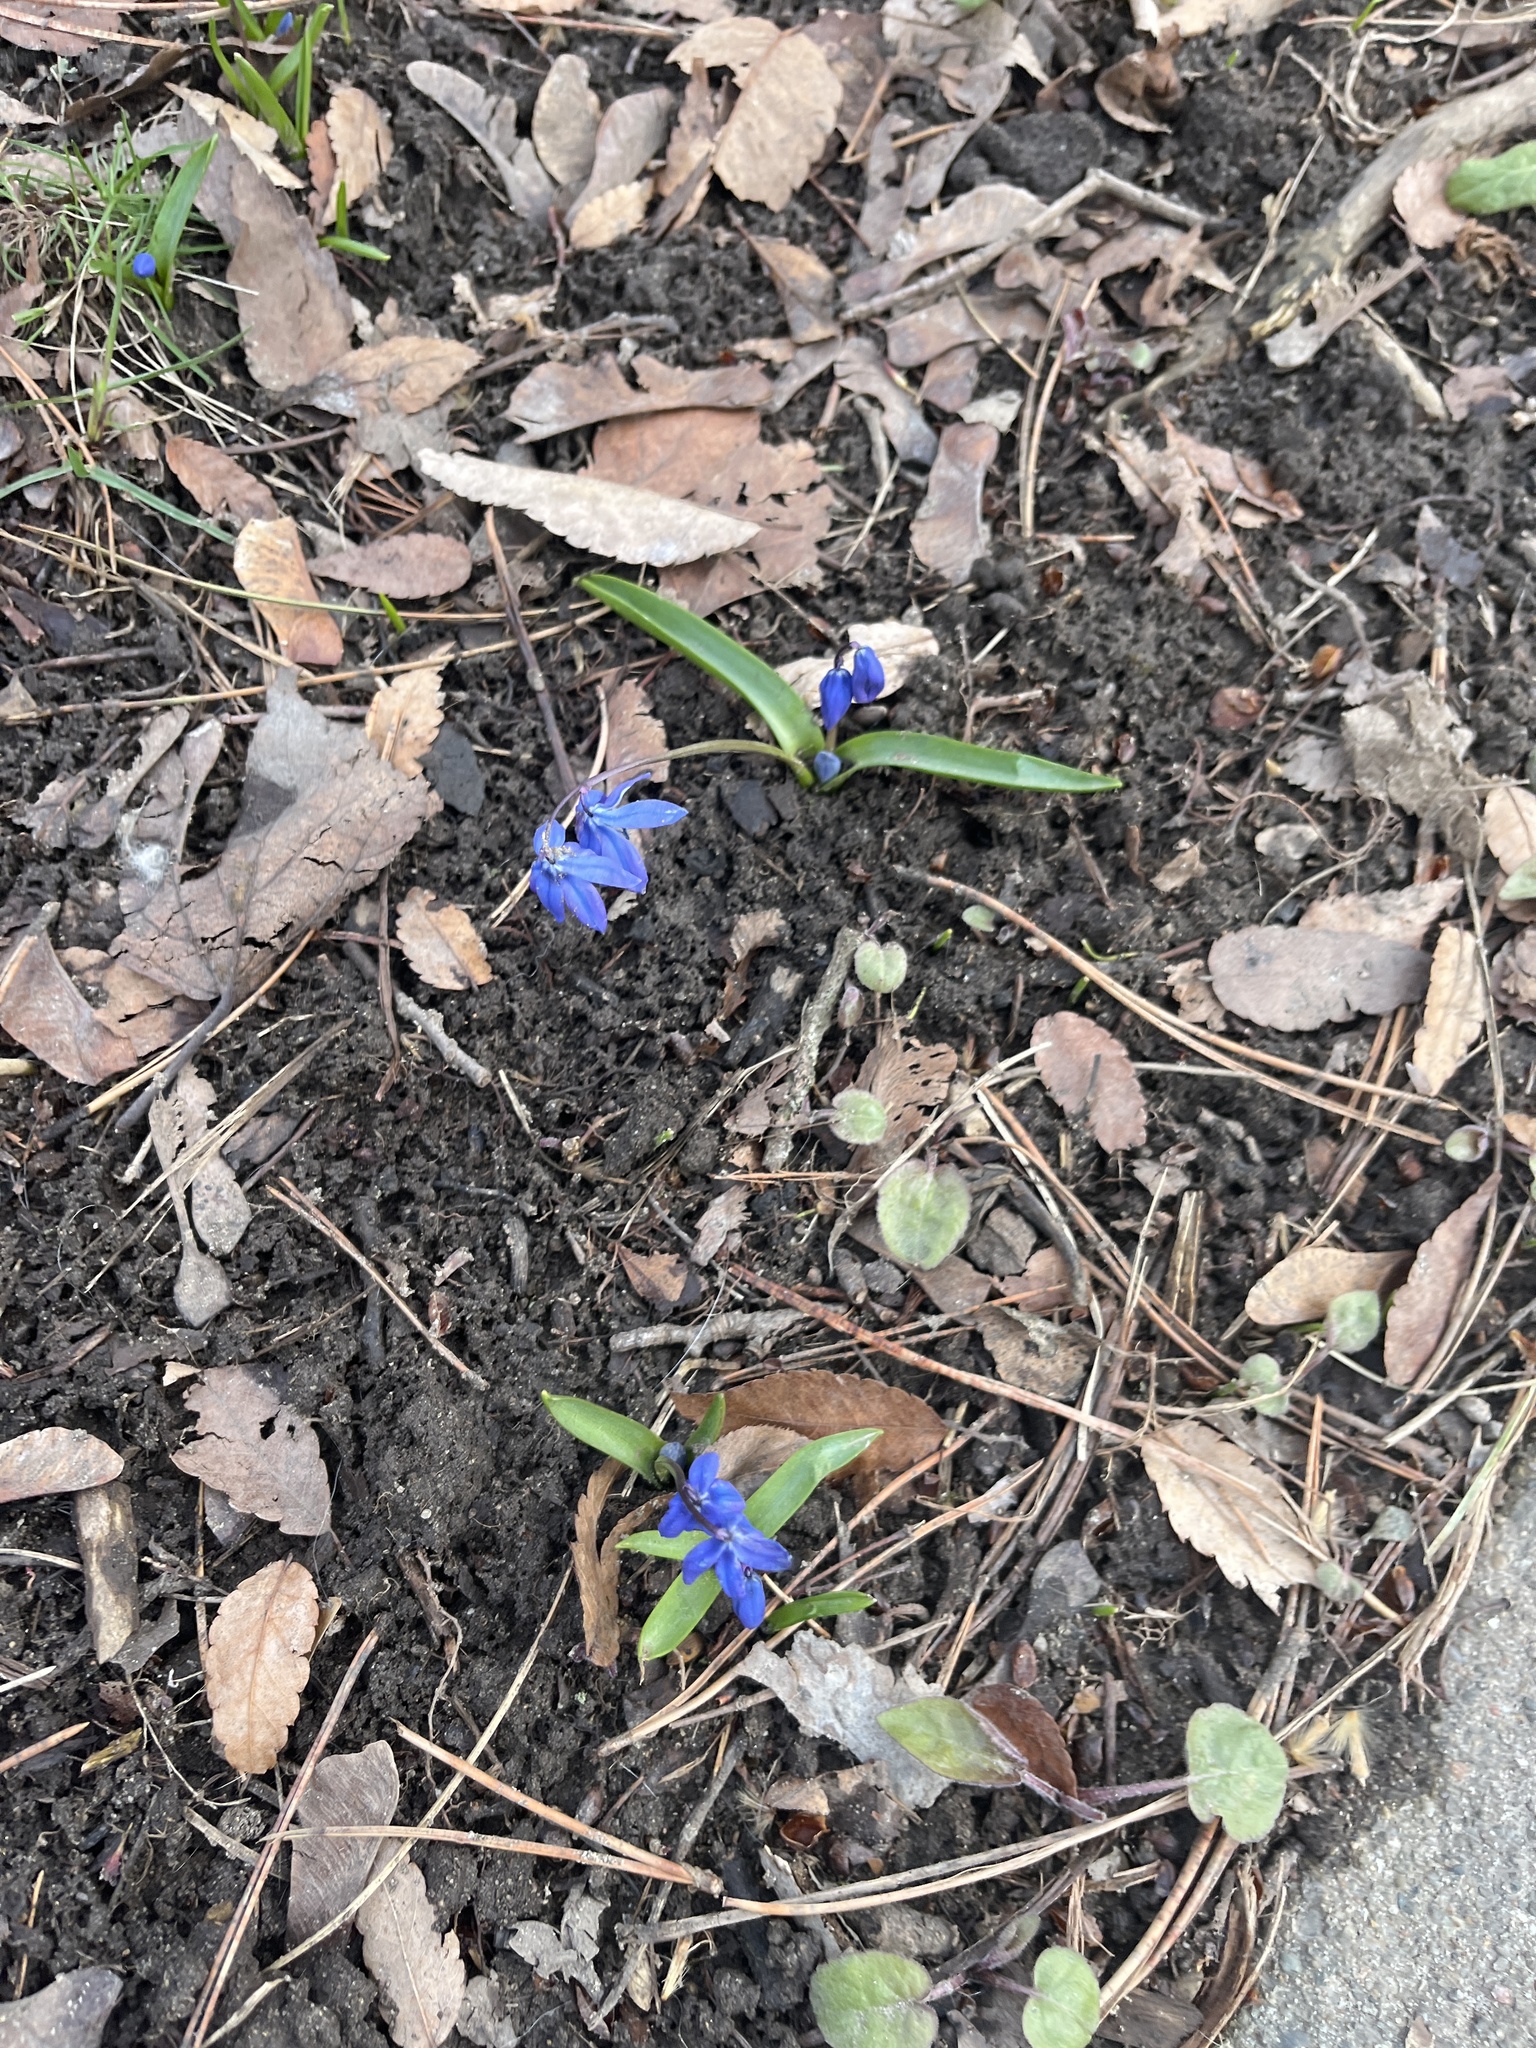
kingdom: Plantae
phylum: Tracheophyta
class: Liliopsida
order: Asparagales
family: Asparagaceae
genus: Scilla
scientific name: Scilla siberica
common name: Siberian squill
